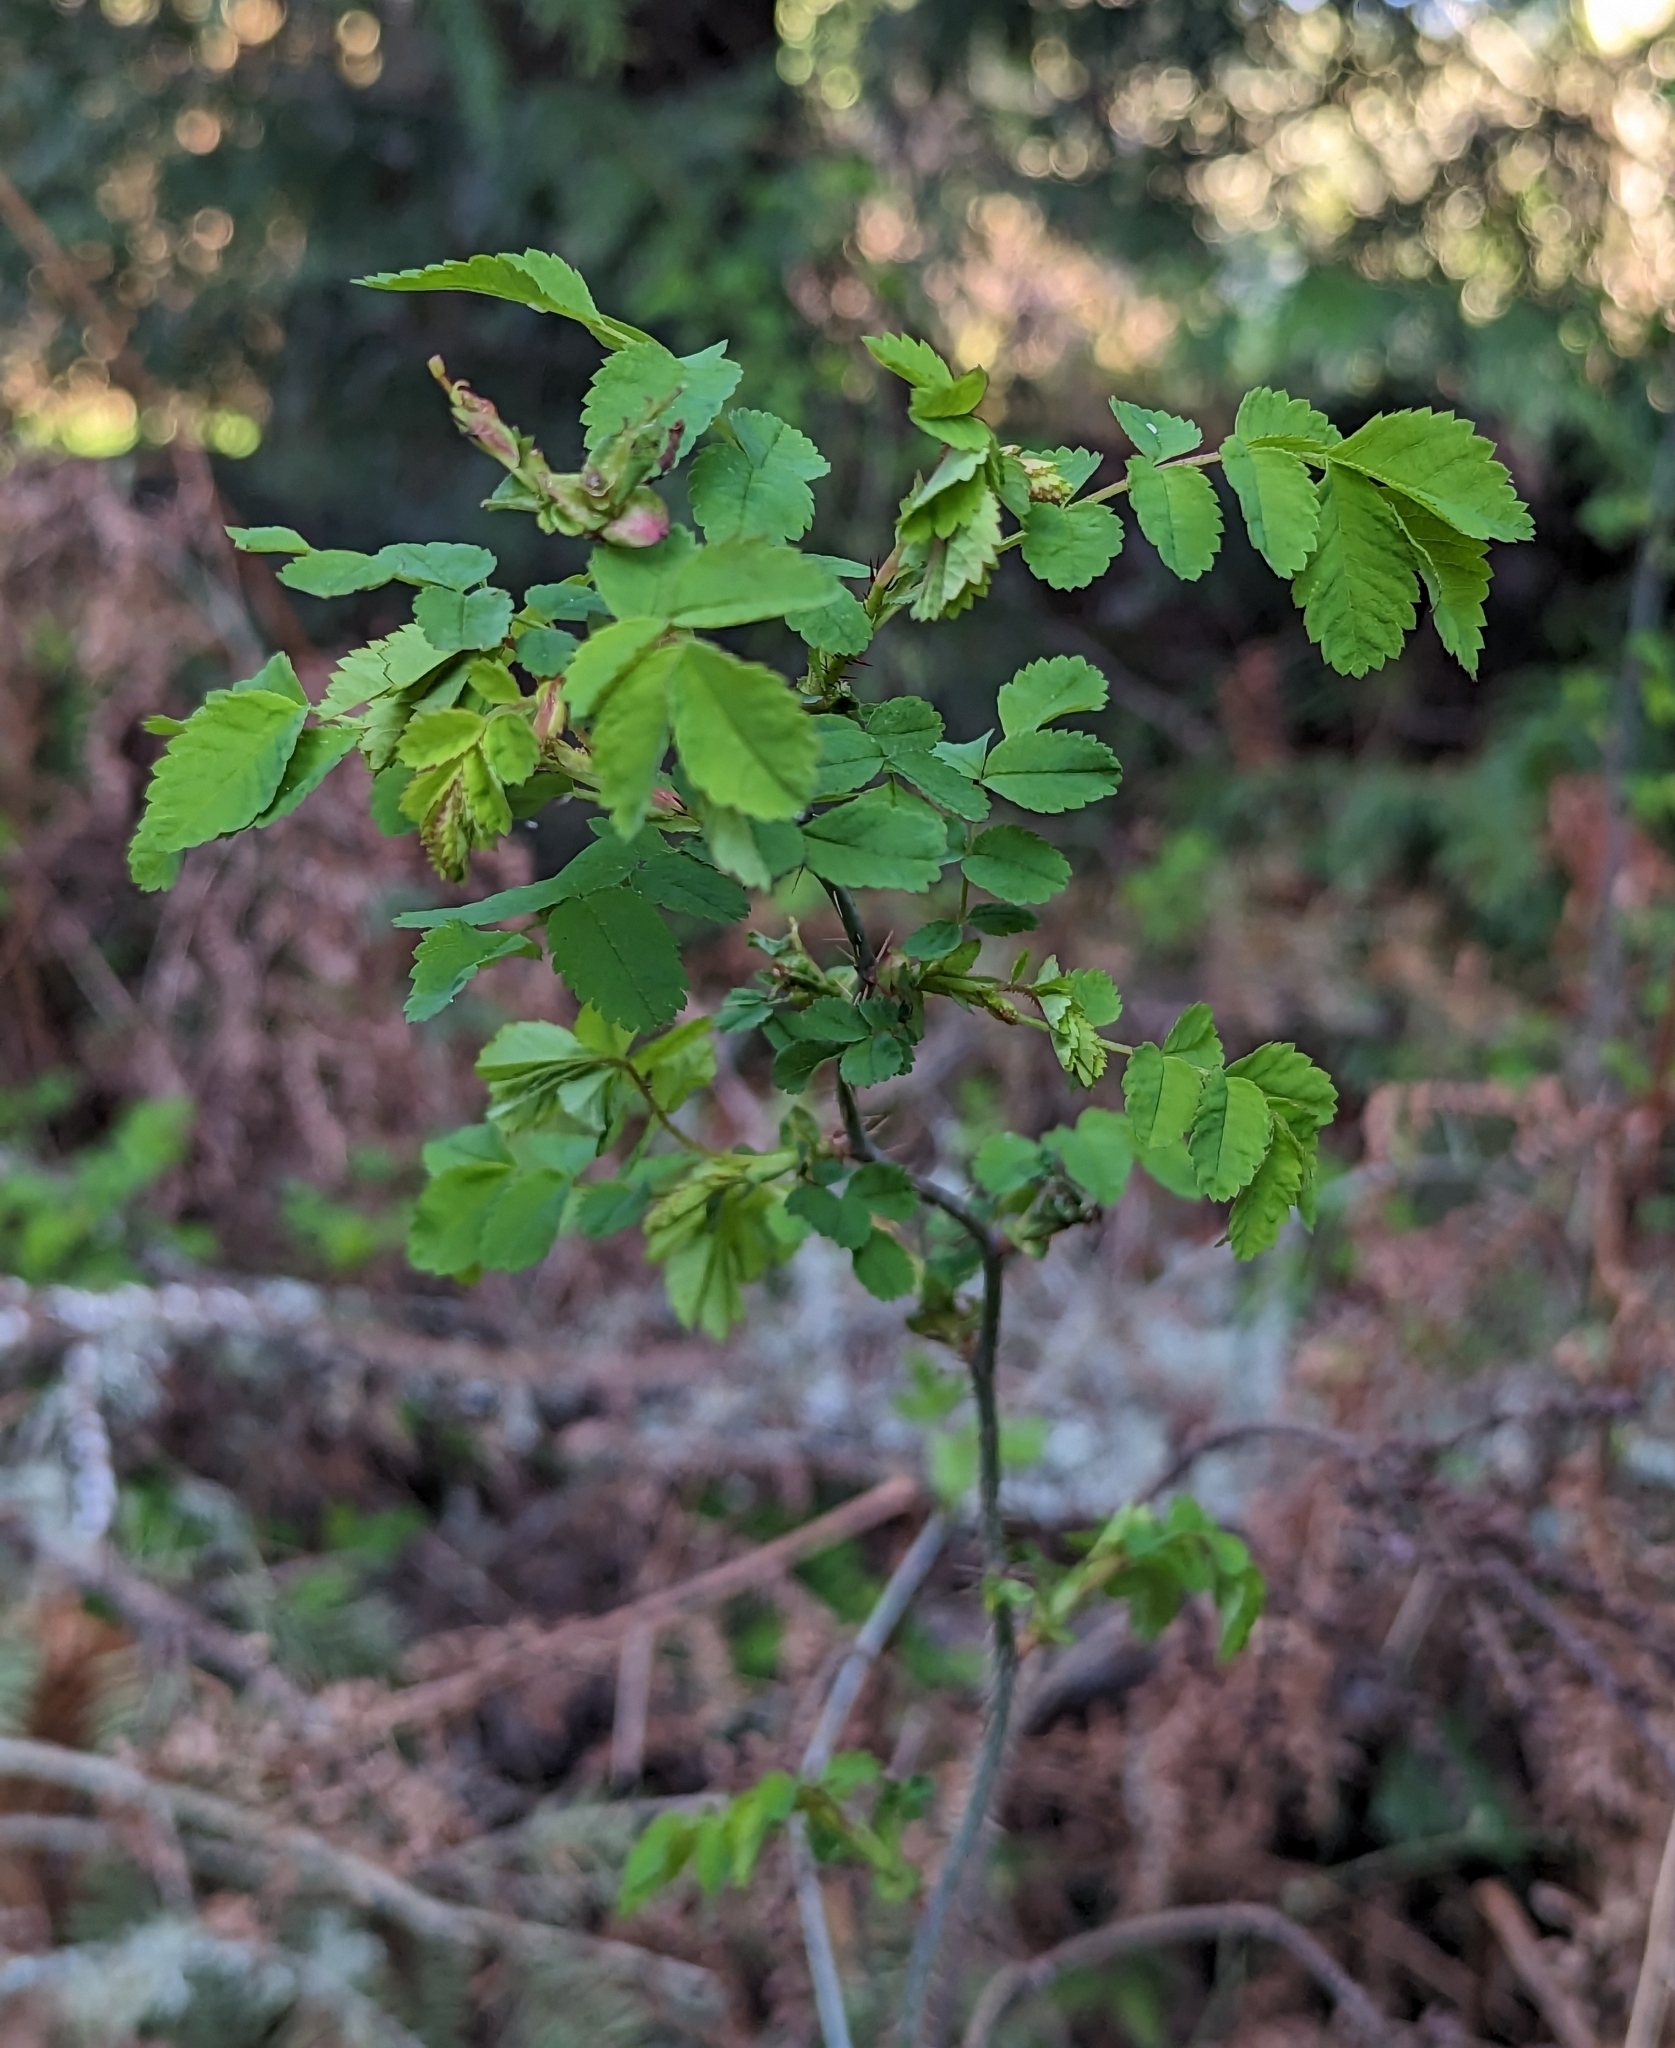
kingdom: Plantae
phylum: Tracheophyta
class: Magnoliopsida
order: Rosales
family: Rosaceae
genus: Rosa
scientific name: Rosa gymnocarpa
